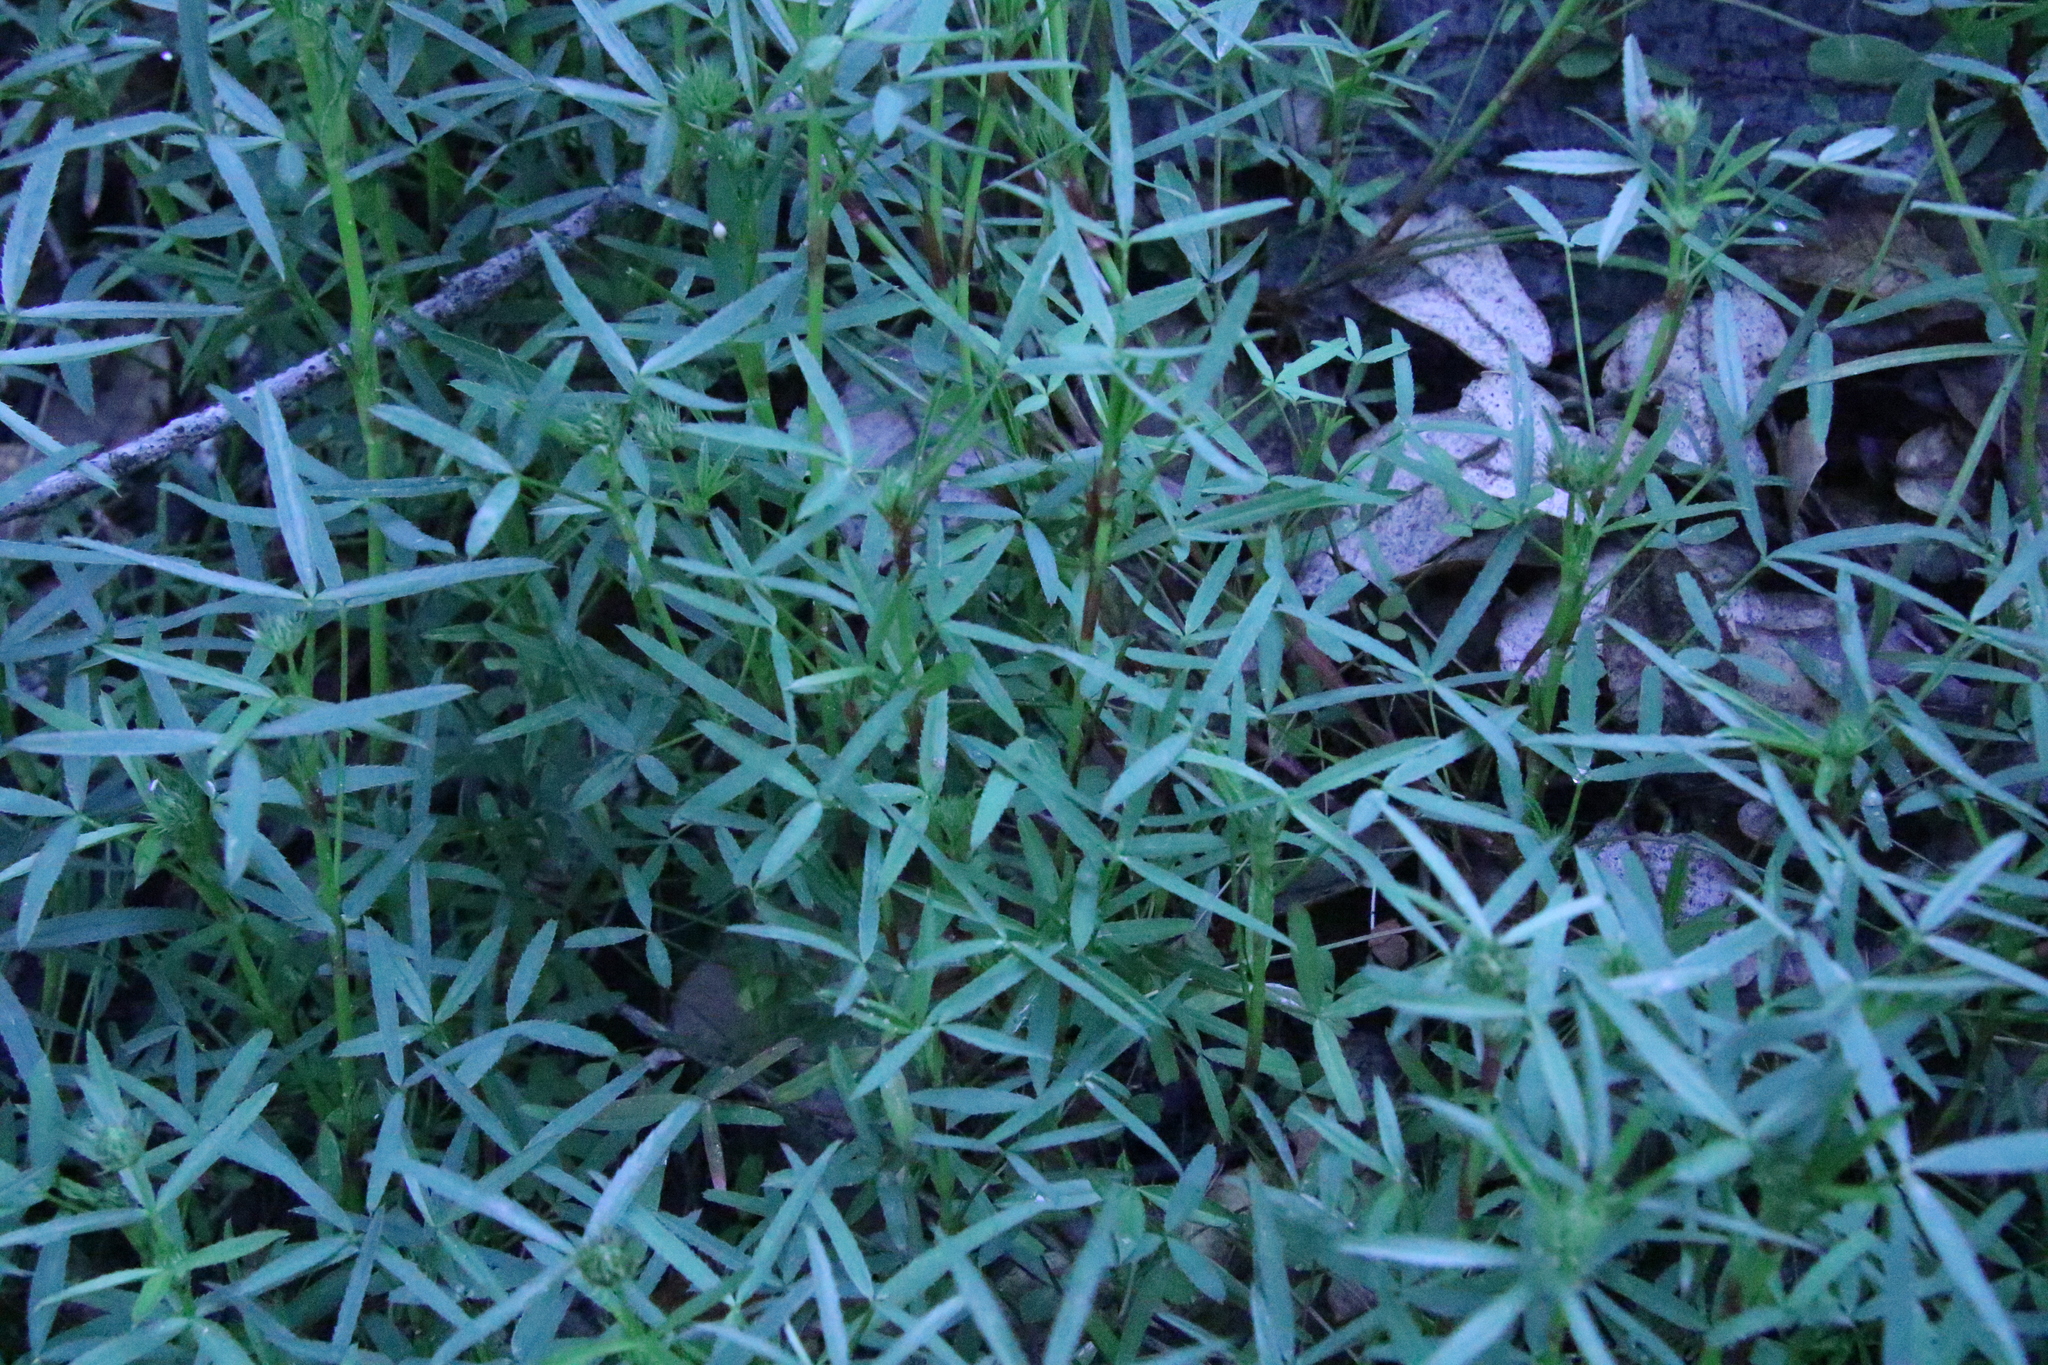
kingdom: Plantae
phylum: Tracheophyta
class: Magnoliopsida
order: Fabales
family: Fabaceae
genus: Trifolium
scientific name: Trifolium willdenovii
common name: Tomcat clover
